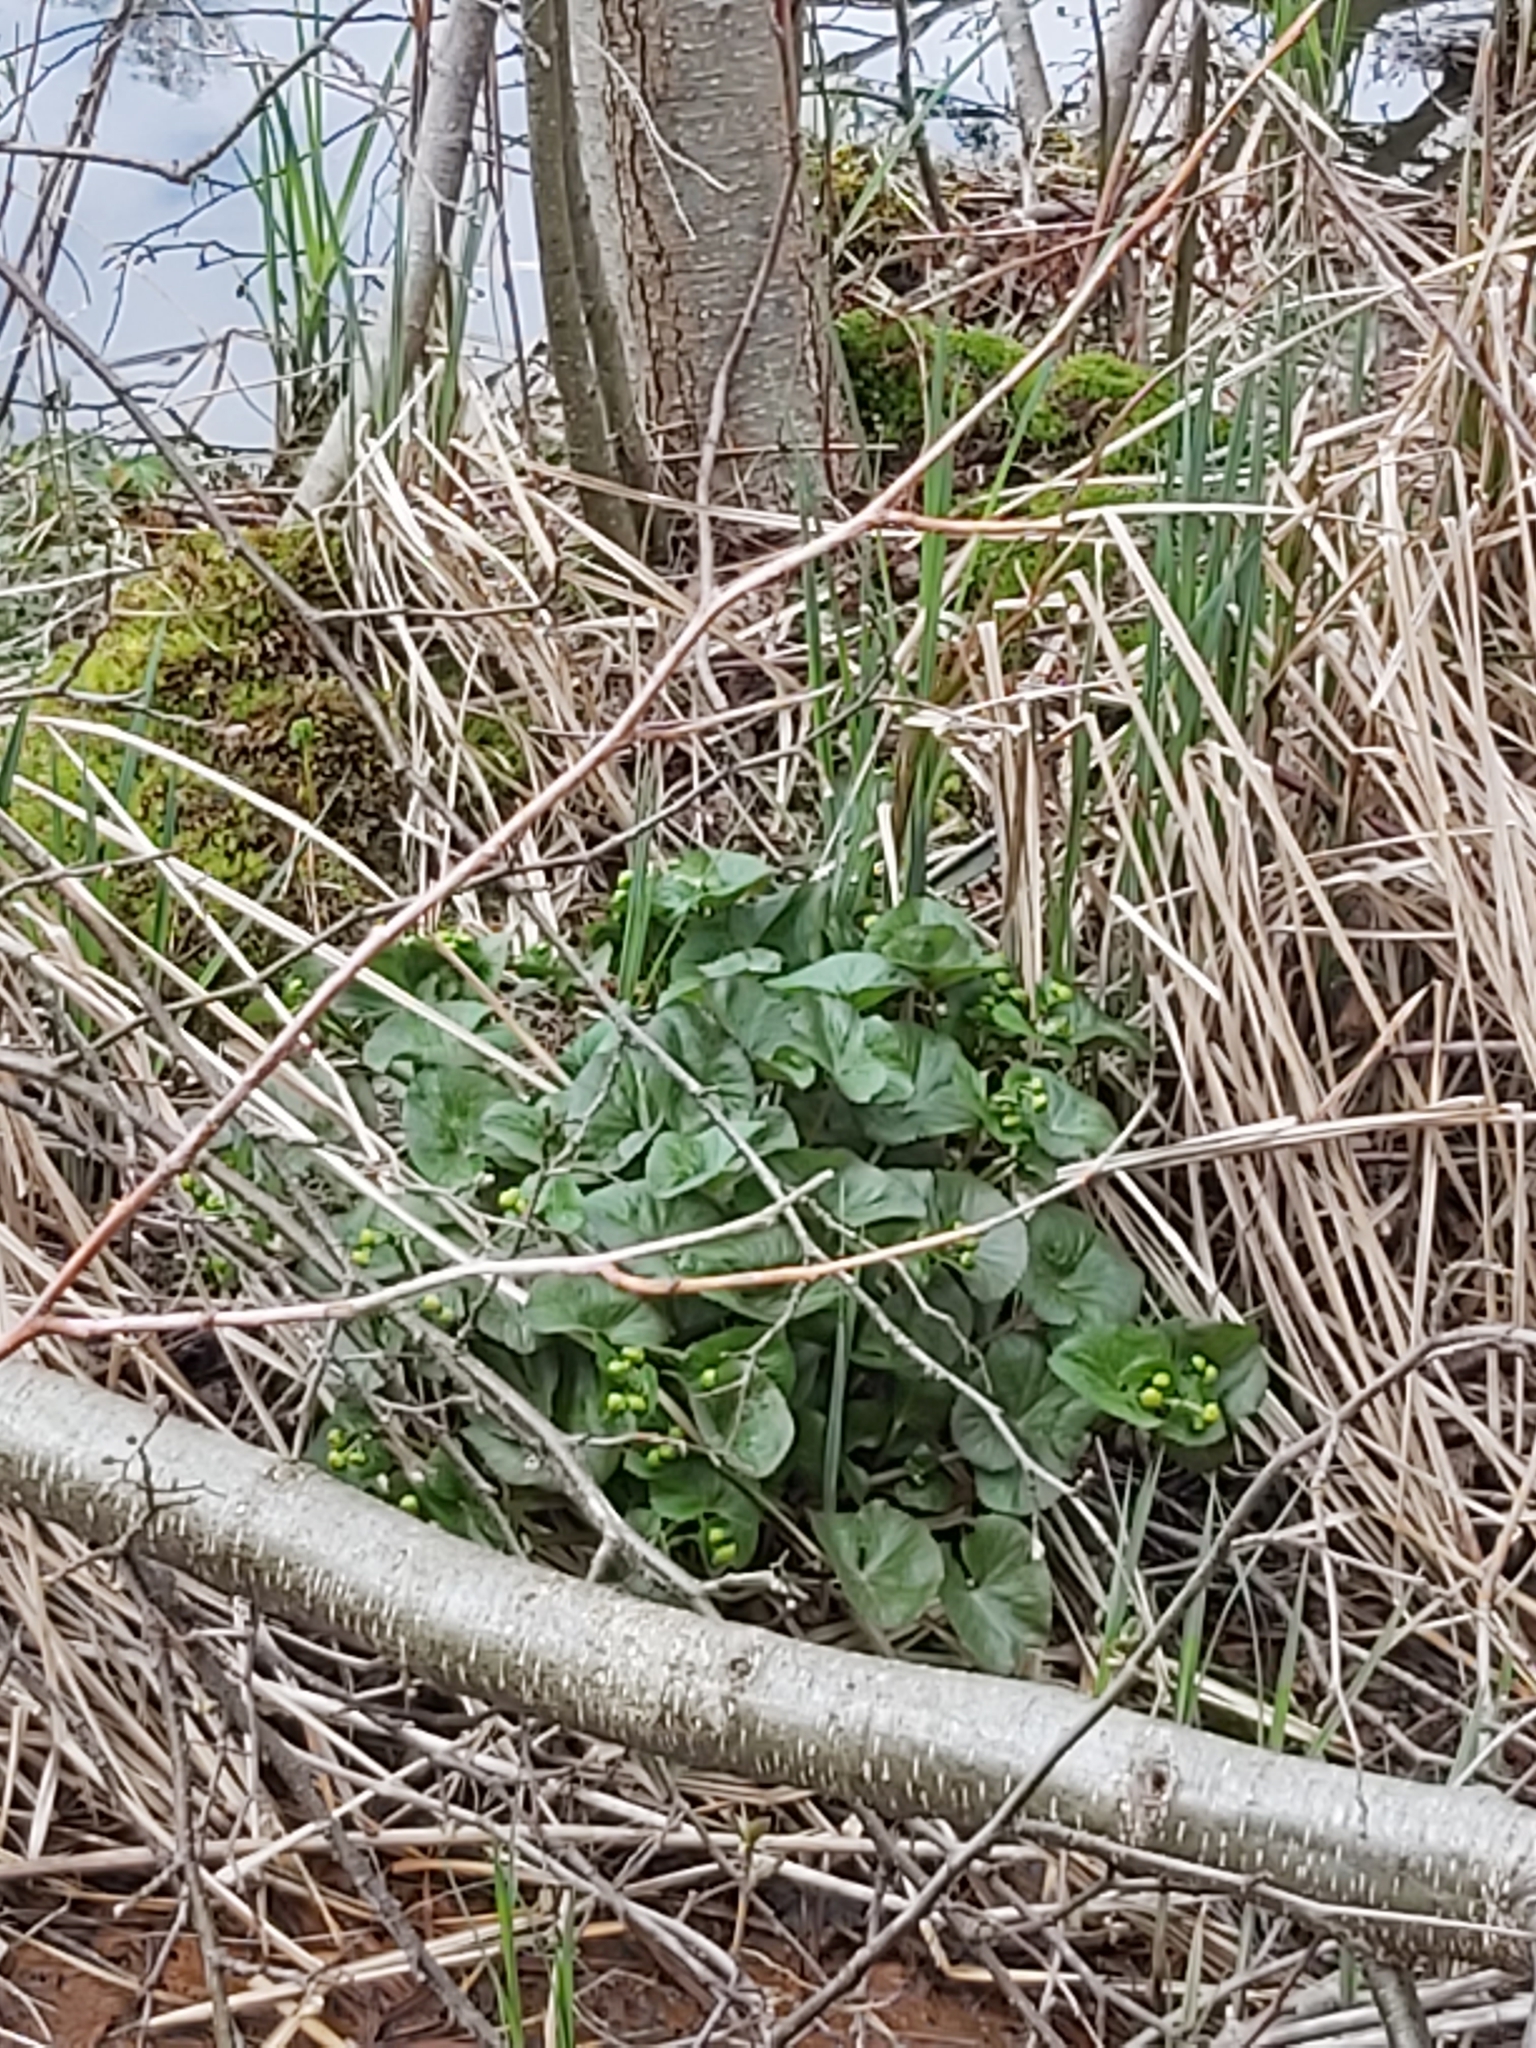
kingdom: Plantae
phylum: Tracheophyta
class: Magnoliopsida
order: Ranunculales
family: Ranunculaceae
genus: Caltha
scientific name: Caltha palustris
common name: Marsh marigold
